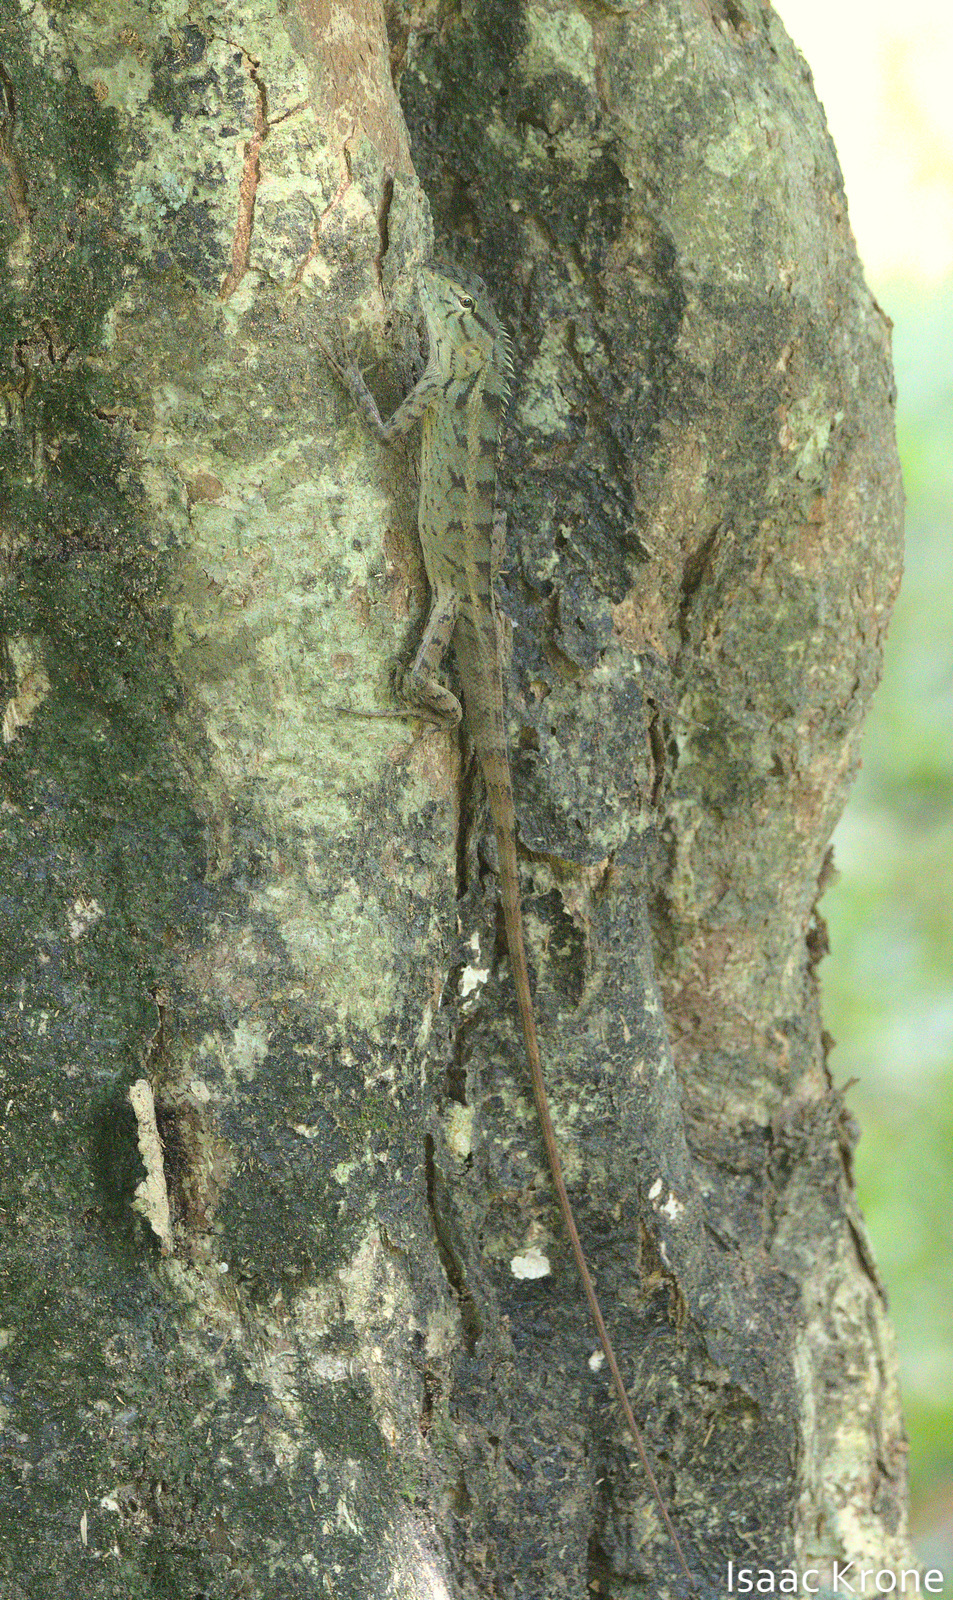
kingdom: Animalia
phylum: Chordata
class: Squamata
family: Agamidae
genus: Calotes
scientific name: Calotes versicolor
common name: Oriental garden lizard
